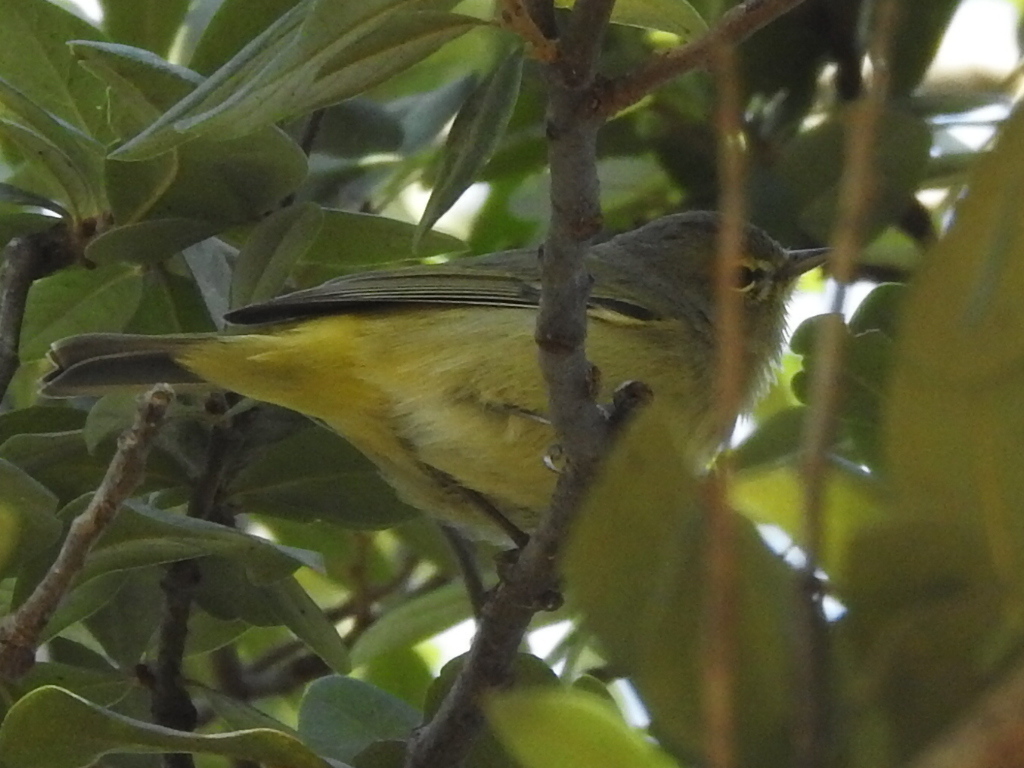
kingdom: Animalia
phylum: Chordata
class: Aves
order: Passeriformes
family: Parulidae
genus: Leiothlypis
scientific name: Leiothlypis celata
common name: Orange-crowned warbler
